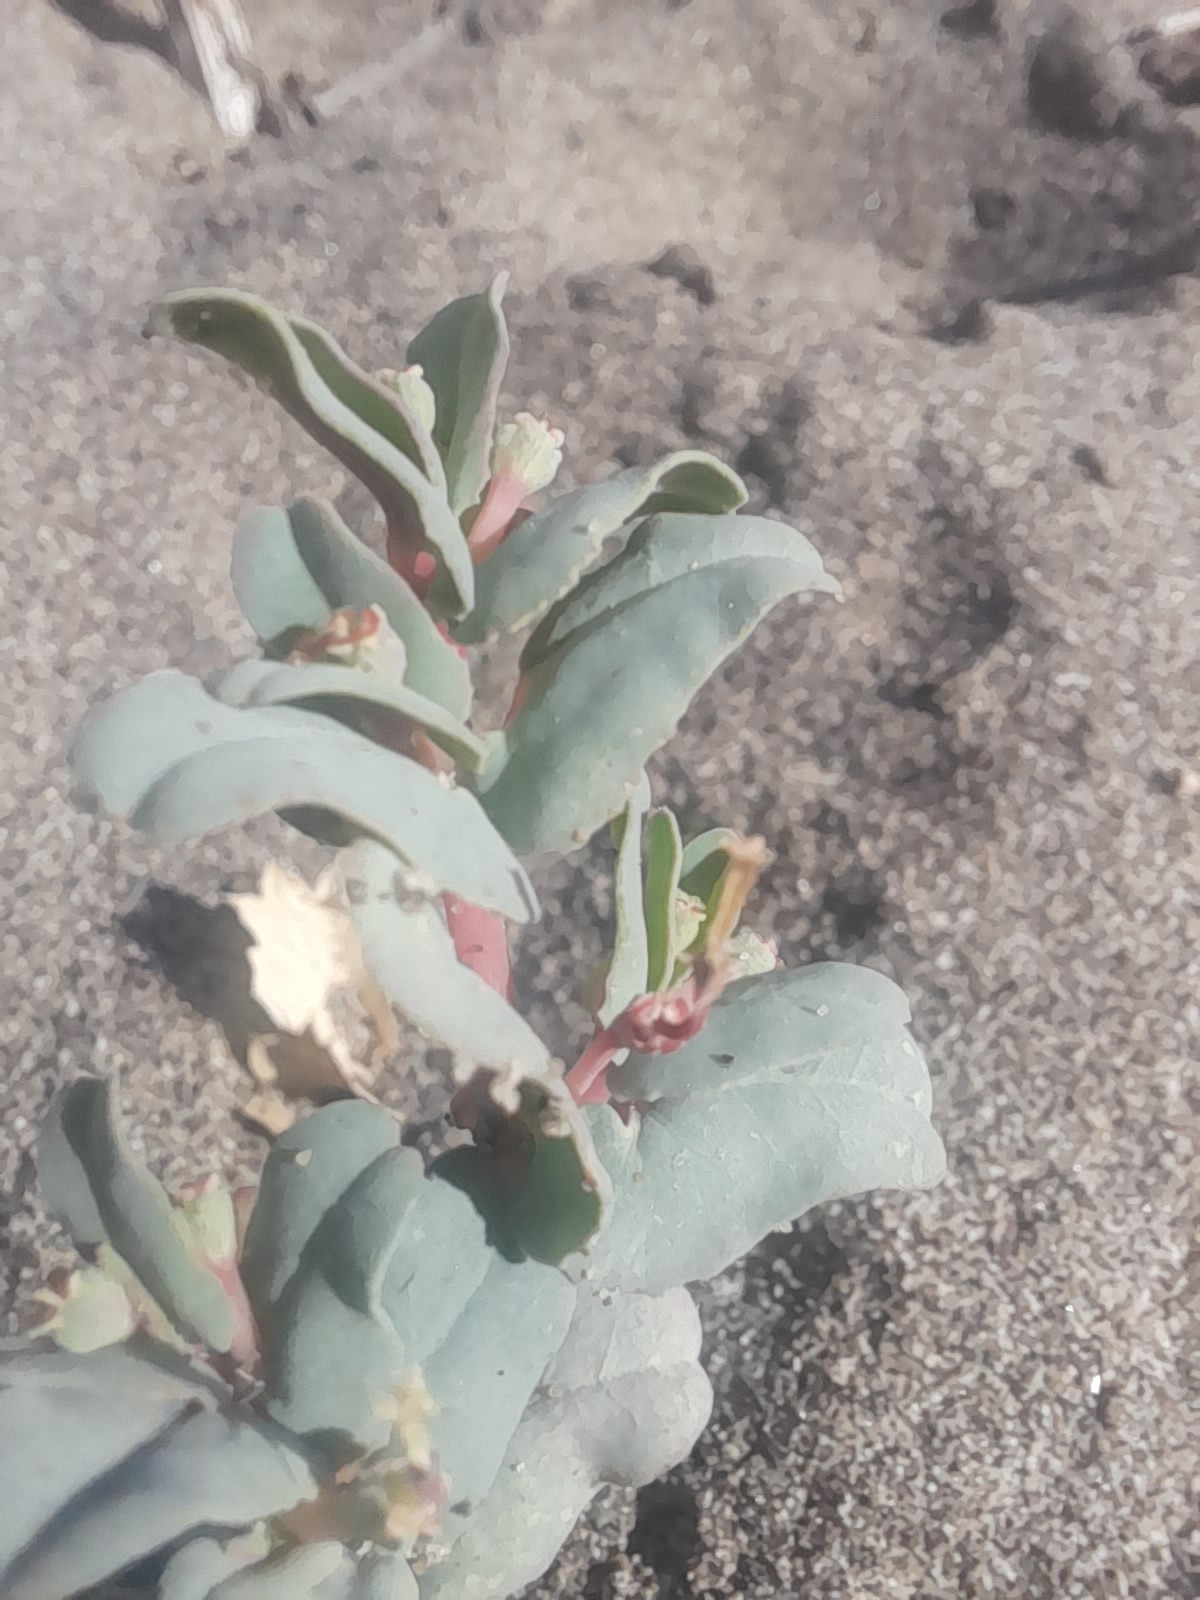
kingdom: Plantae
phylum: Tracheophyta
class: Magnoliopsida
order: Malpighiales
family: Euphorbiaceae
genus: Euphorbia
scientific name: Euphorbia peplis
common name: Purple spurge
